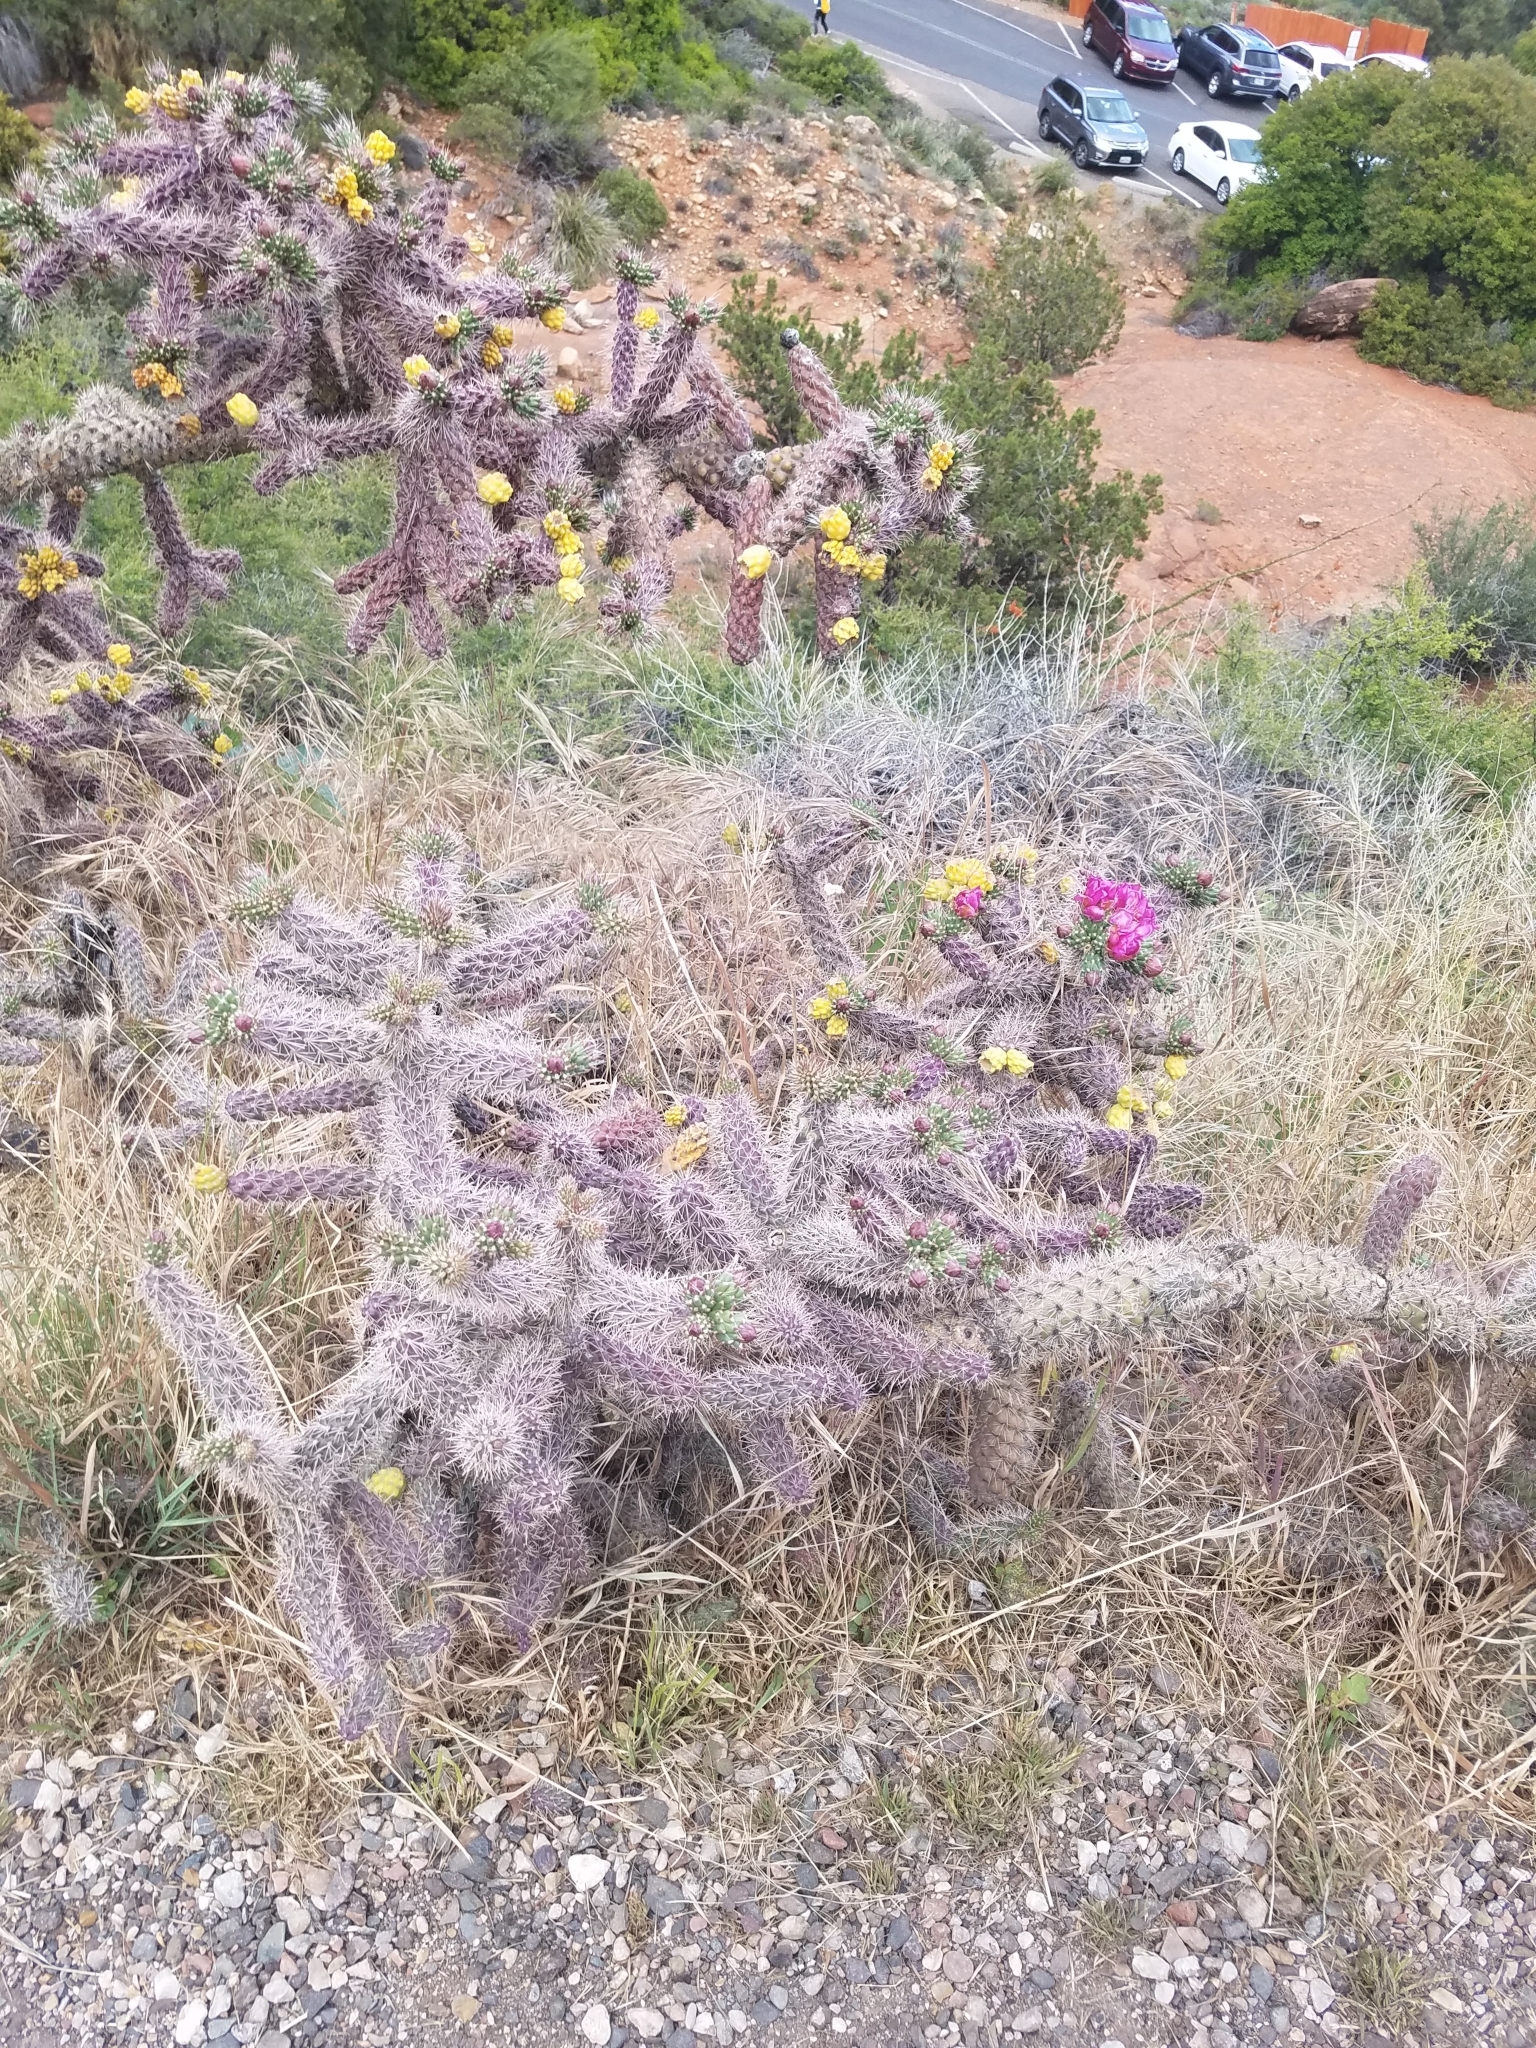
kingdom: Plantae
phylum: Tracheophyta
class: Magnoliopsida
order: Caryophyllales
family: Cactaceae
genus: Cylindropuntia
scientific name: Cylindropuntia imbricata
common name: Candelabrum cactus
